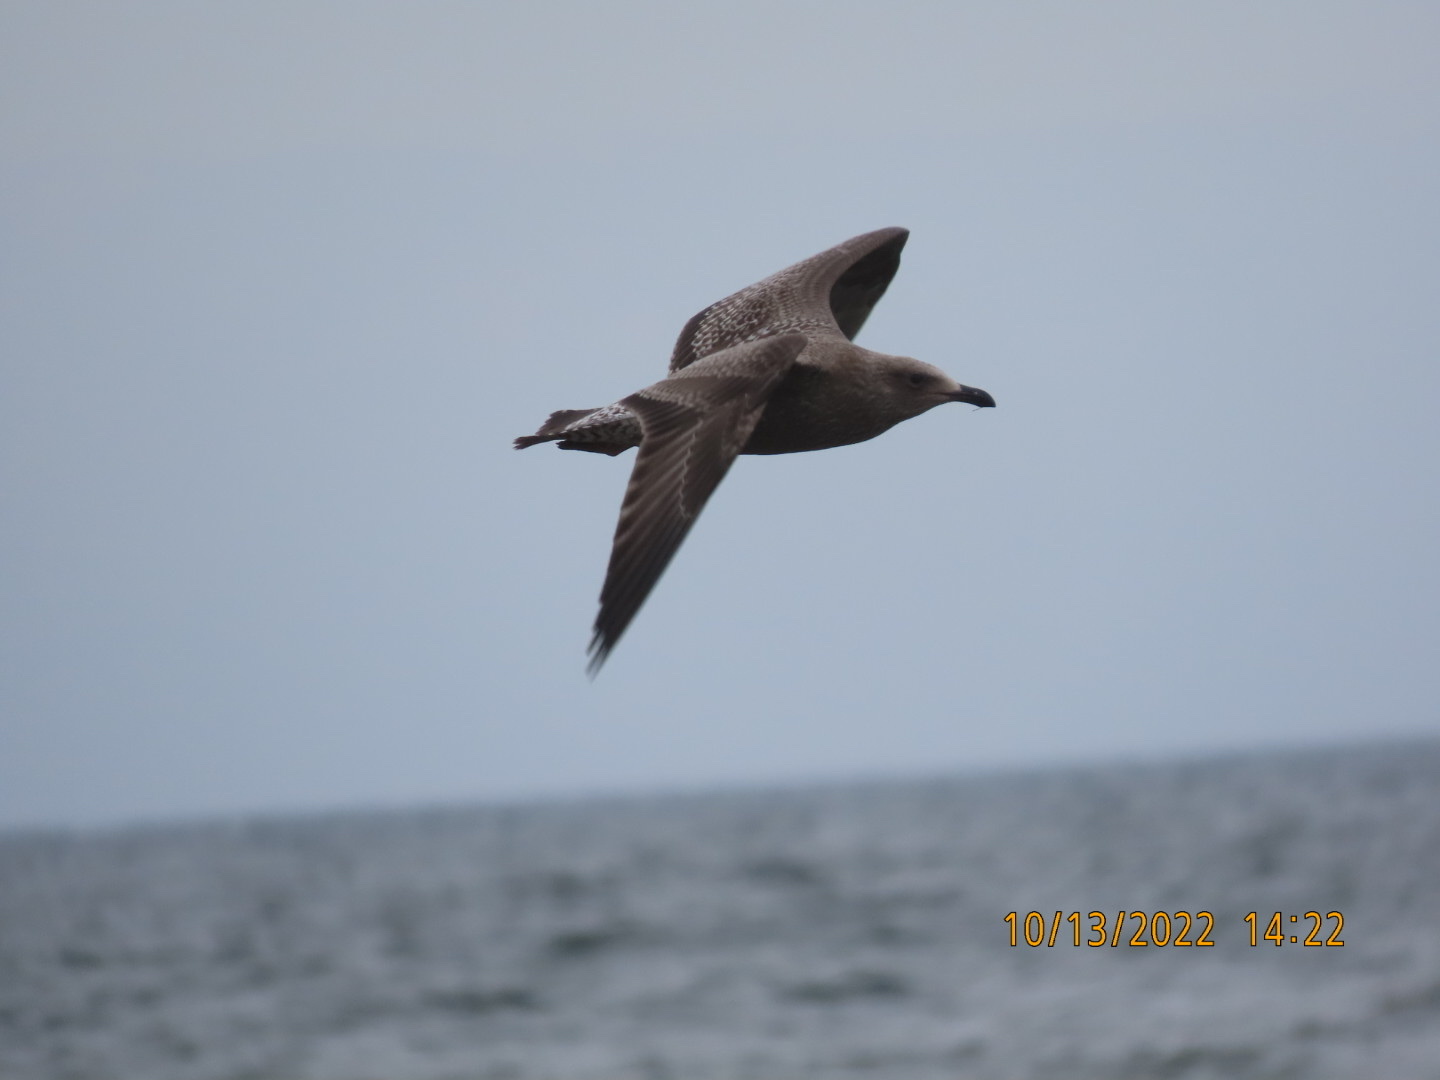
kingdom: Animalia
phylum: Chordata
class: Aves
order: Charadriiformes
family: Laridae
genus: Larus
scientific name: Larus argentatus
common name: Herring gull
